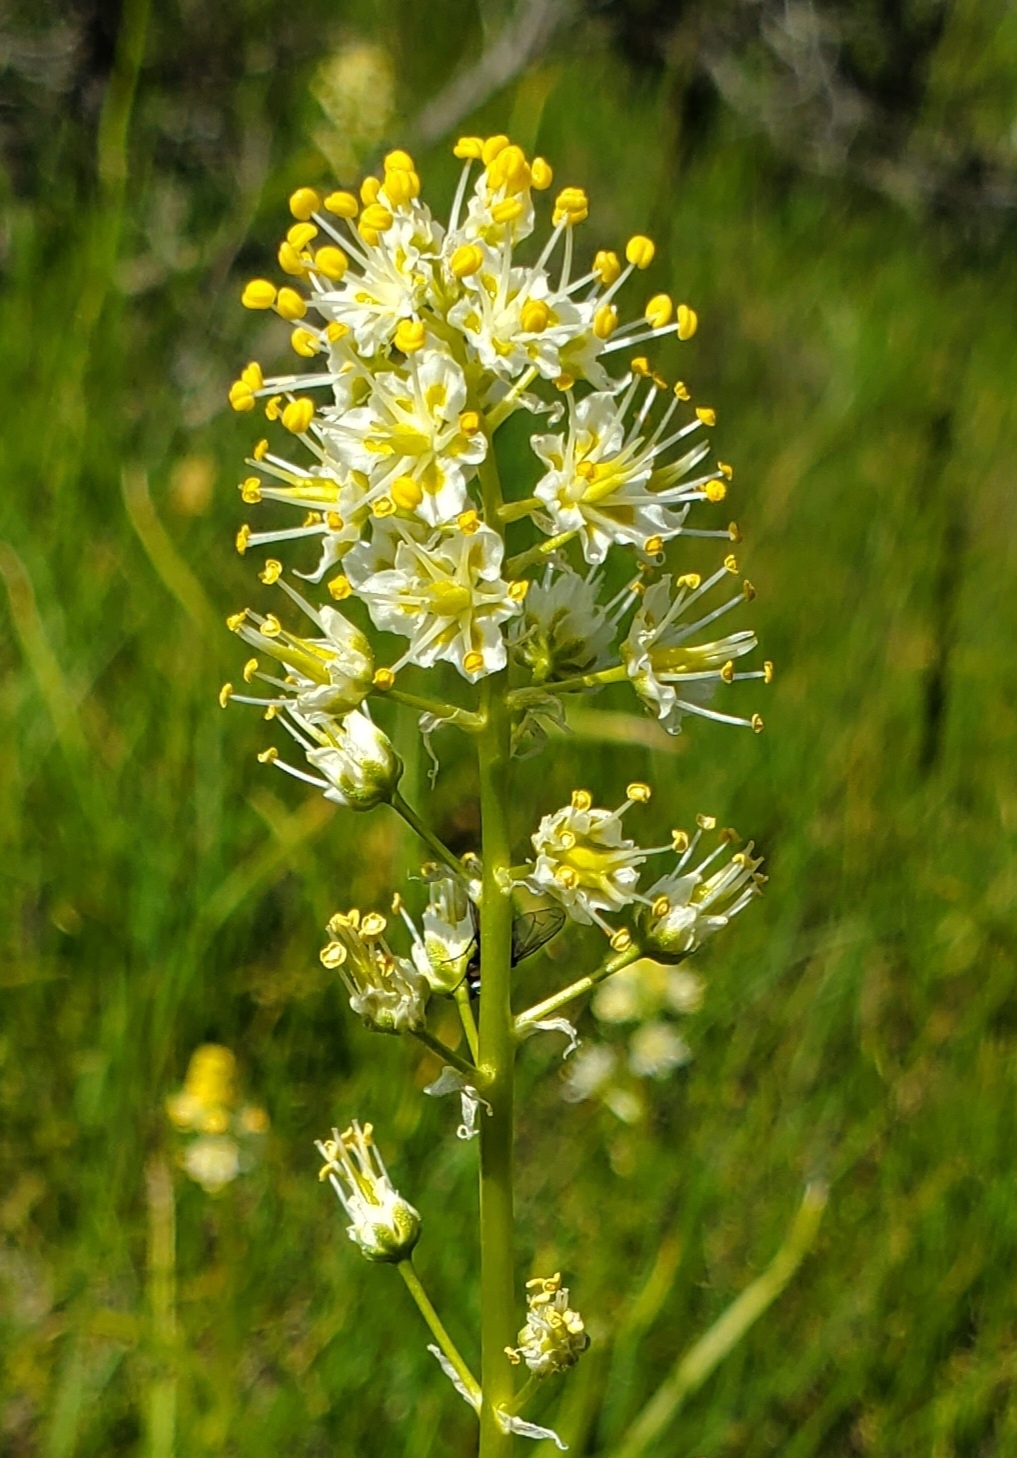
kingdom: Plantae
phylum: Tracheophyta
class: Liliopsida
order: Liliales
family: Melanthiaceae
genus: Toxicoscordion
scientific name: Toxicoscordion paniculatum
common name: Foothill death camas
